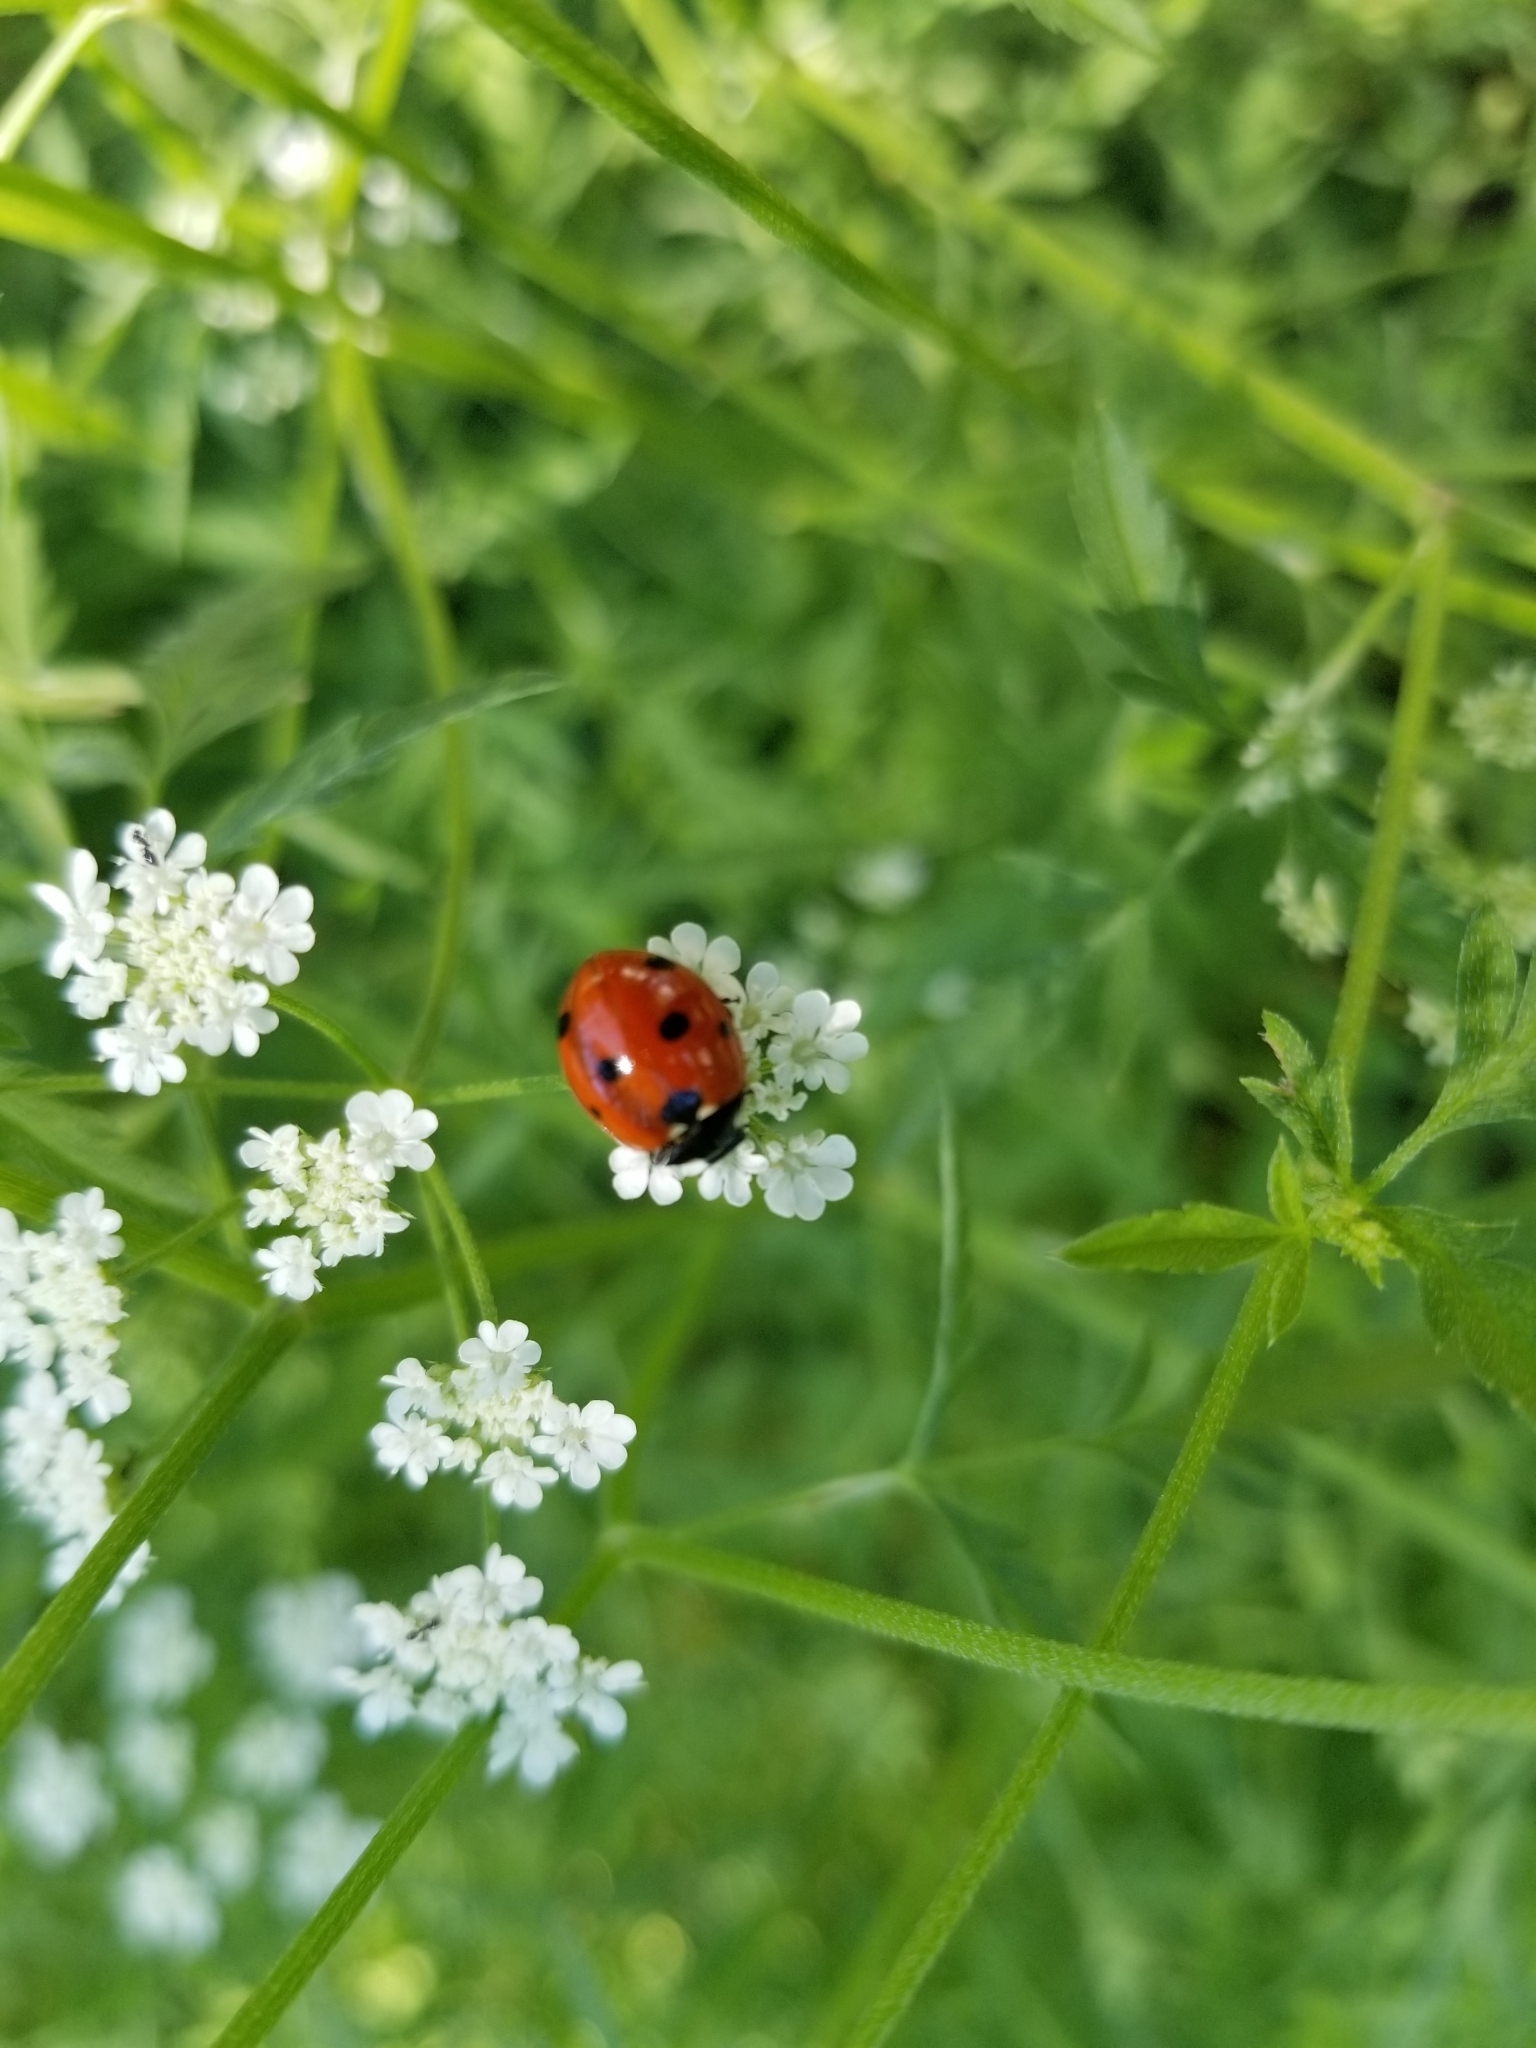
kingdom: Animalia
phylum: Arthropoda
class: Insecta
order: Coleoptera
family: Coccinellidae
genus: Coccinella
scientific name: Coccinella septempunctata
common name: Sevenspotted lady beetle
